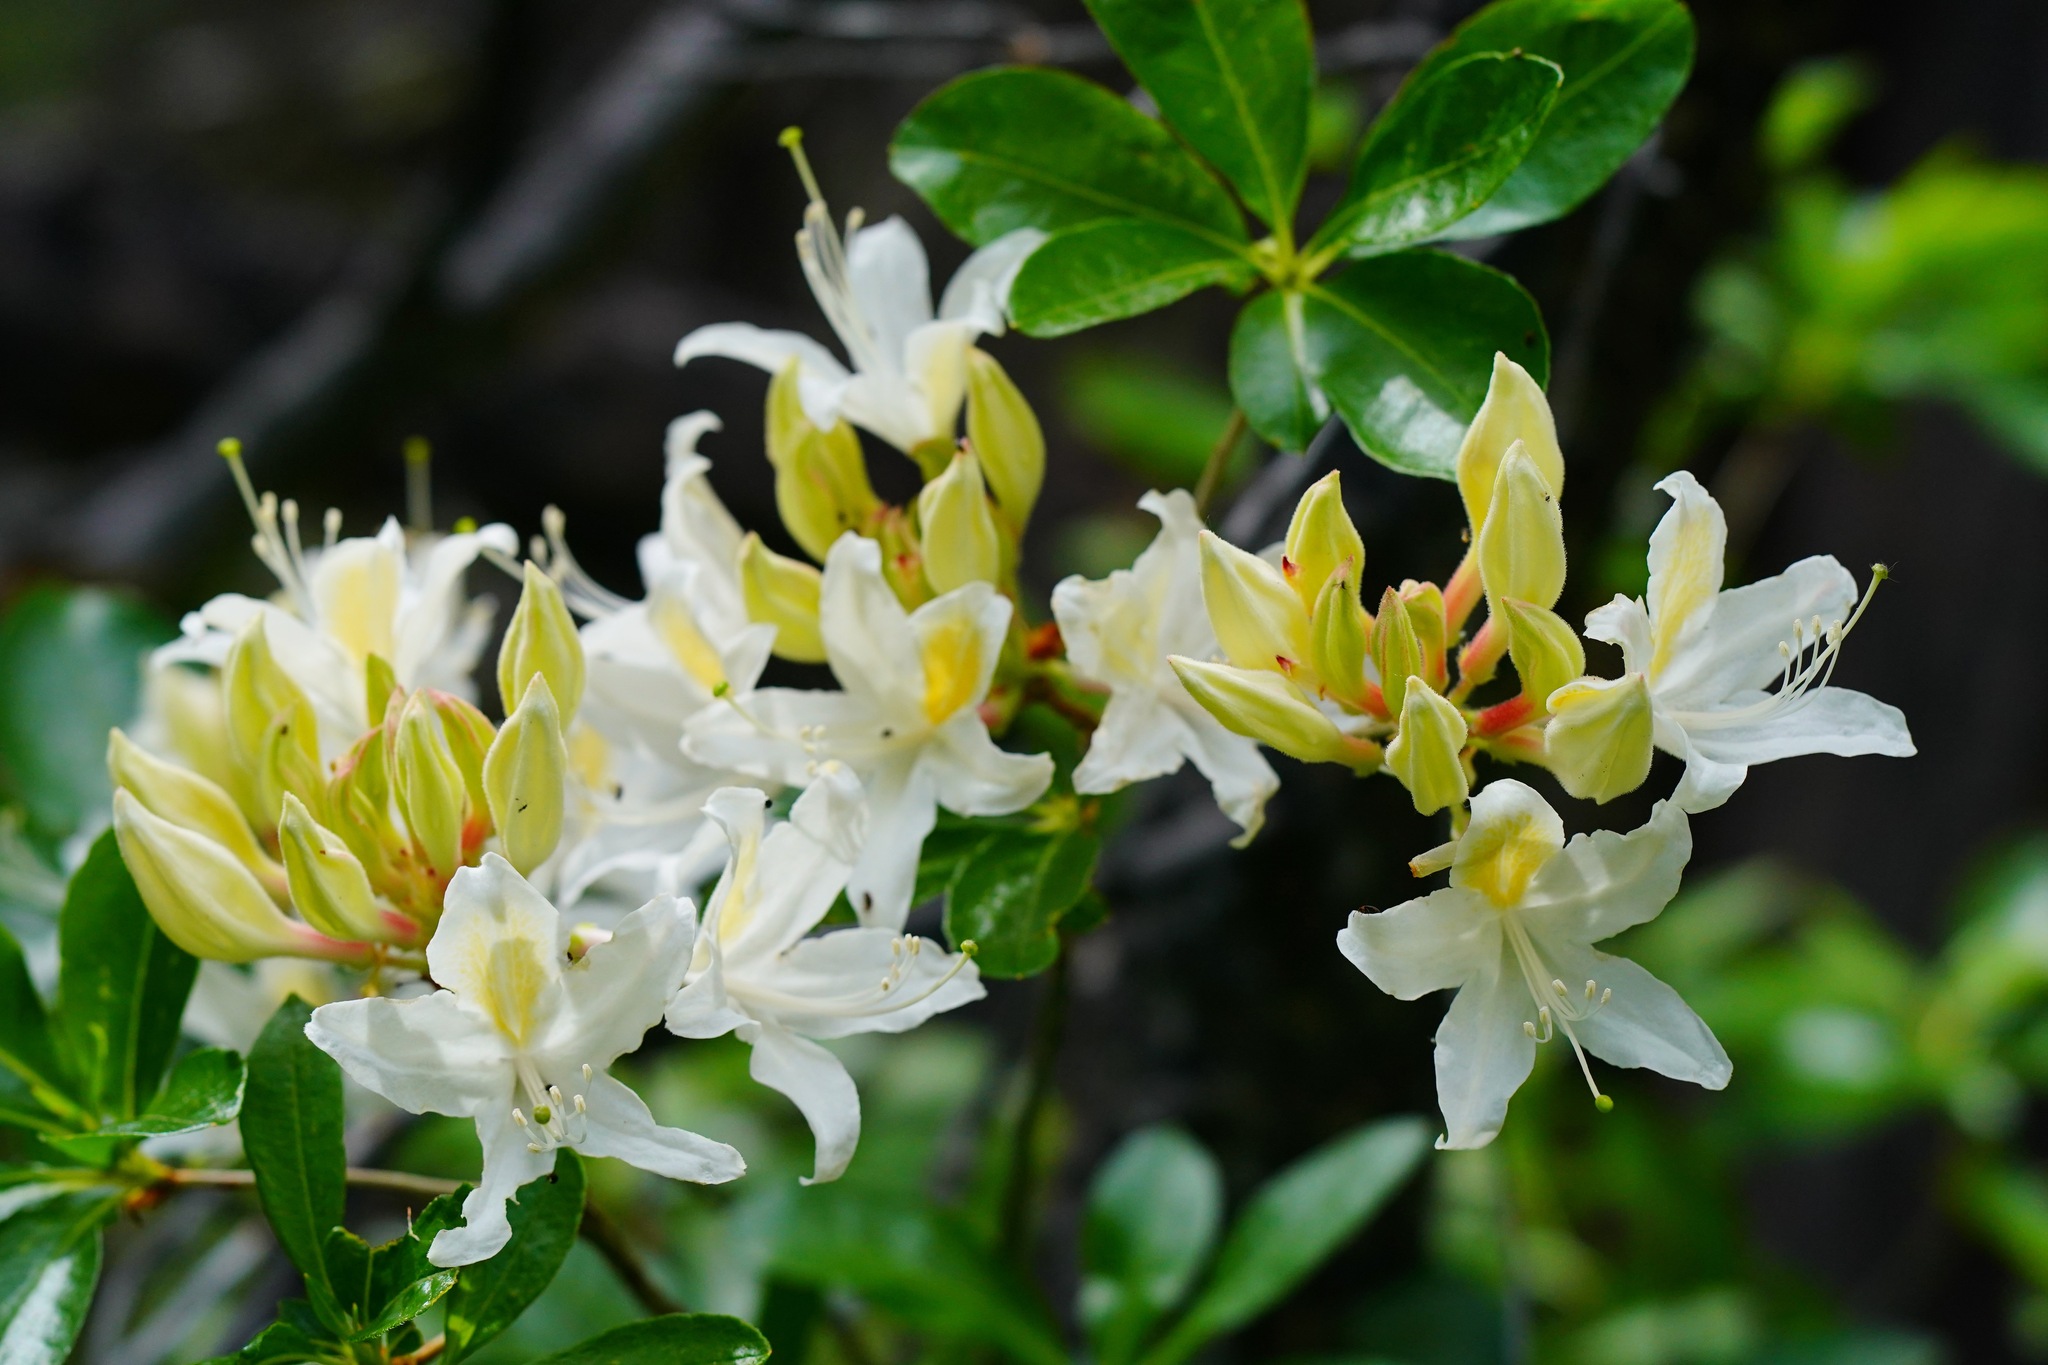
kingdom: Plantae
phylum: Tracheophyta
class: Magnoliopsida
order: Ericales
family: Ericaceae
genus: Rhododendron
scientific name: Rhododendron occidentale
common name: Western azalea
